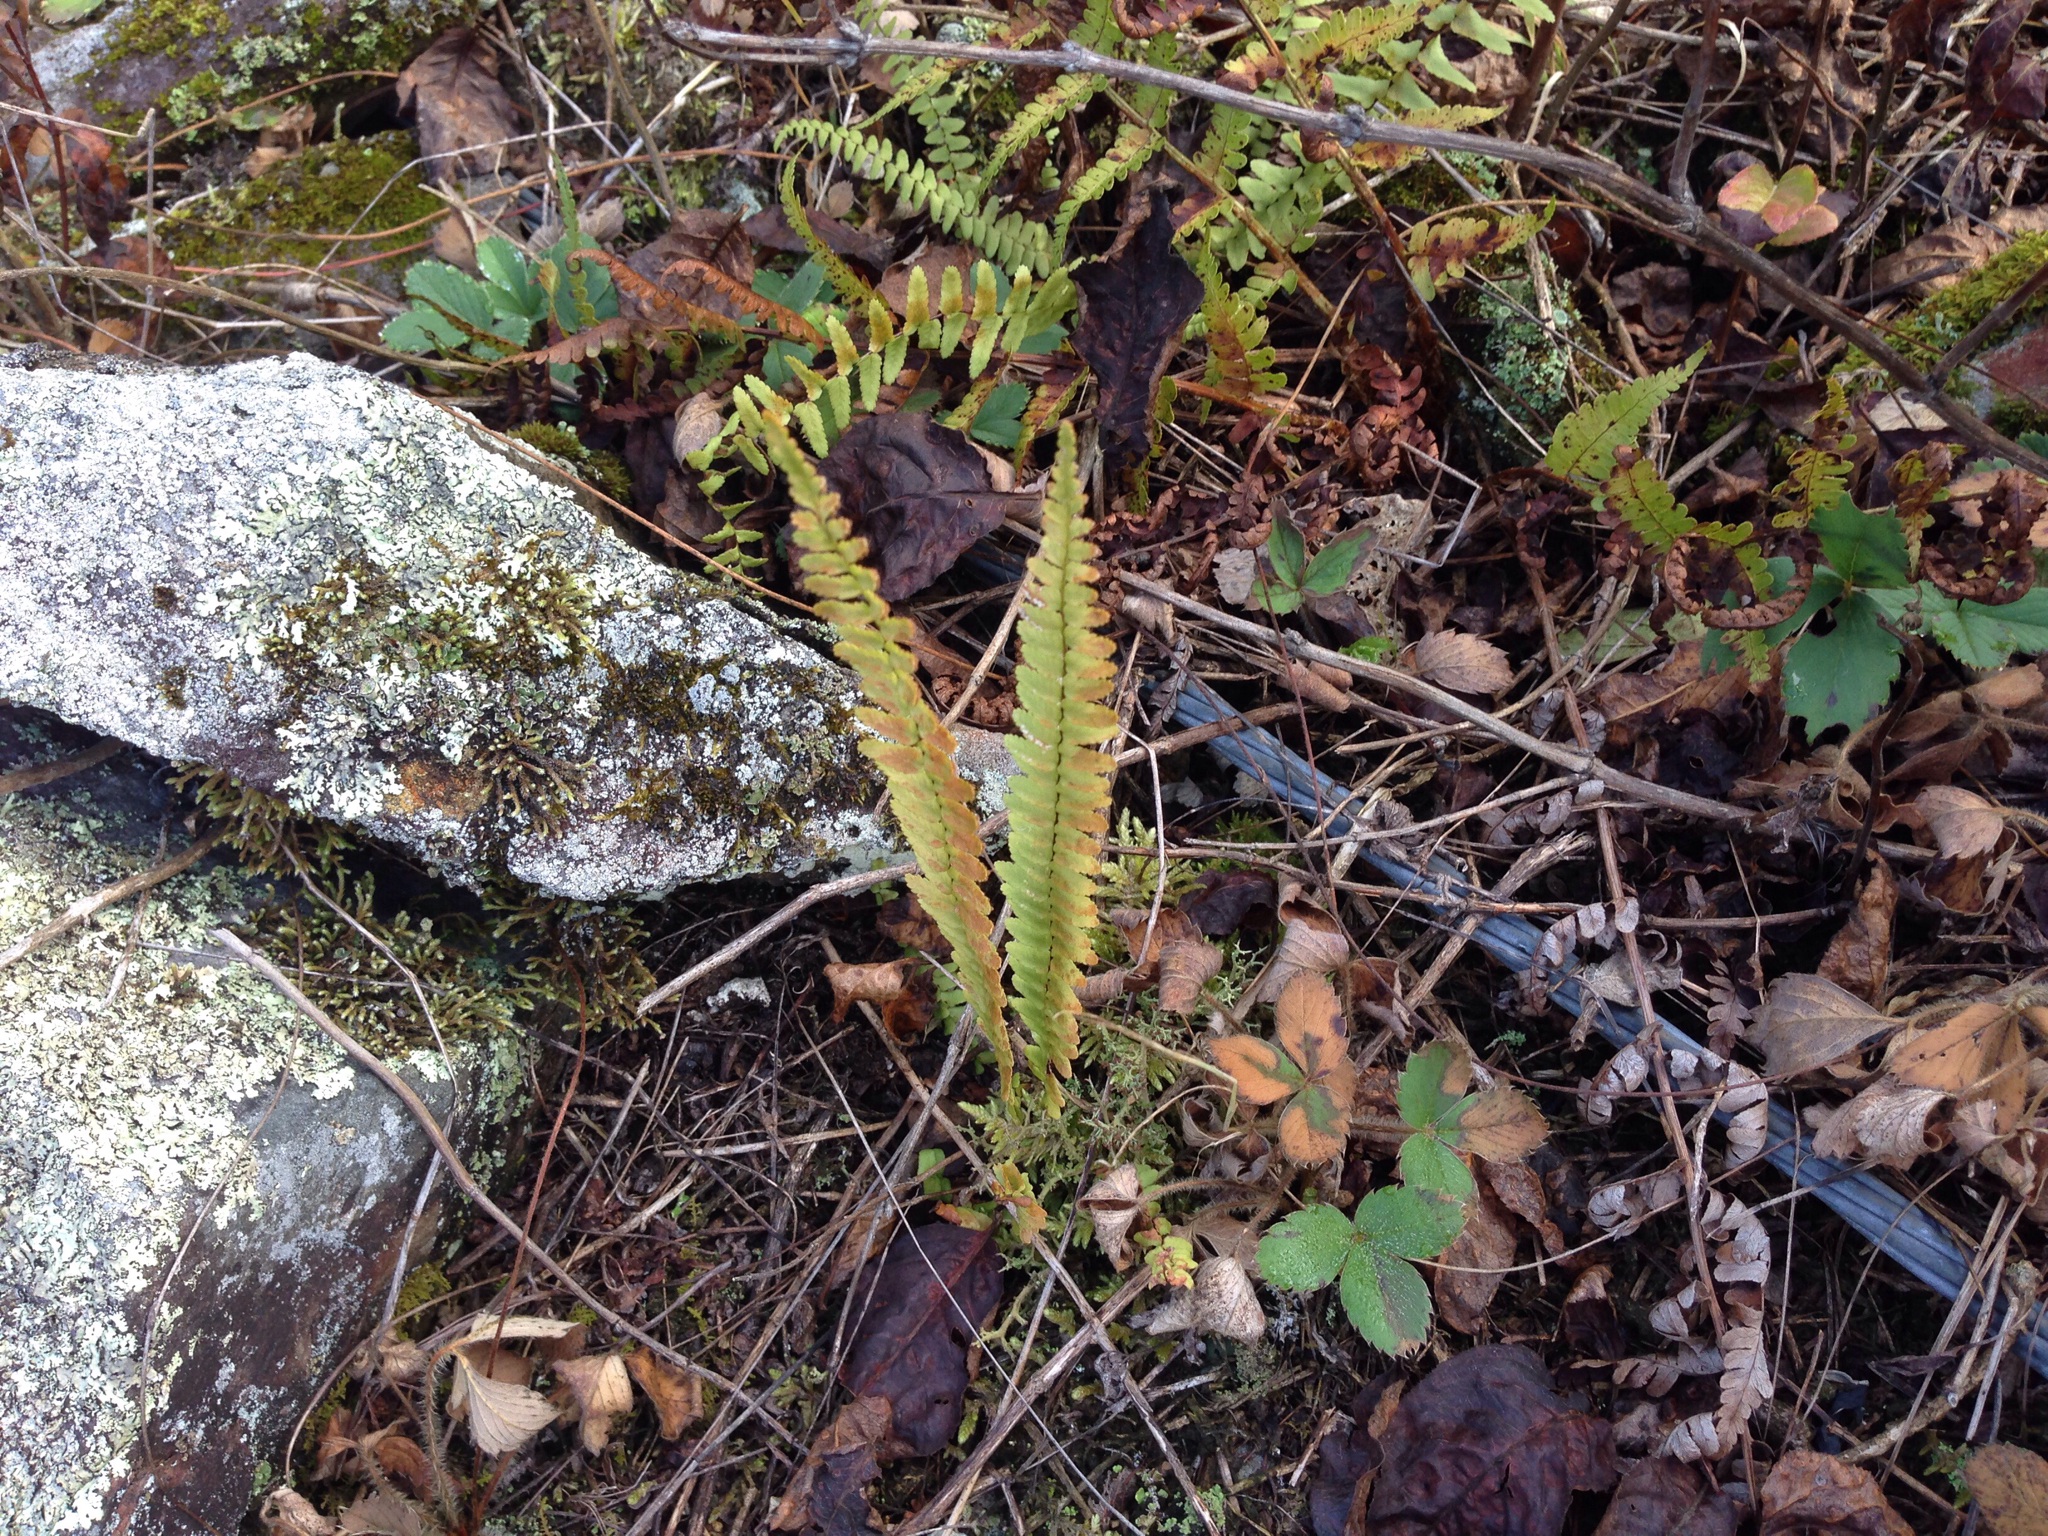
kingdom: Plantae
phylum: Tracheophyta
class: Polypodiopsida
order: Polypodiales
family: Aspleniaceae
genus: Asplenium
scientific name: Asplenium platyneuron
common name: Ebony spleenwort
